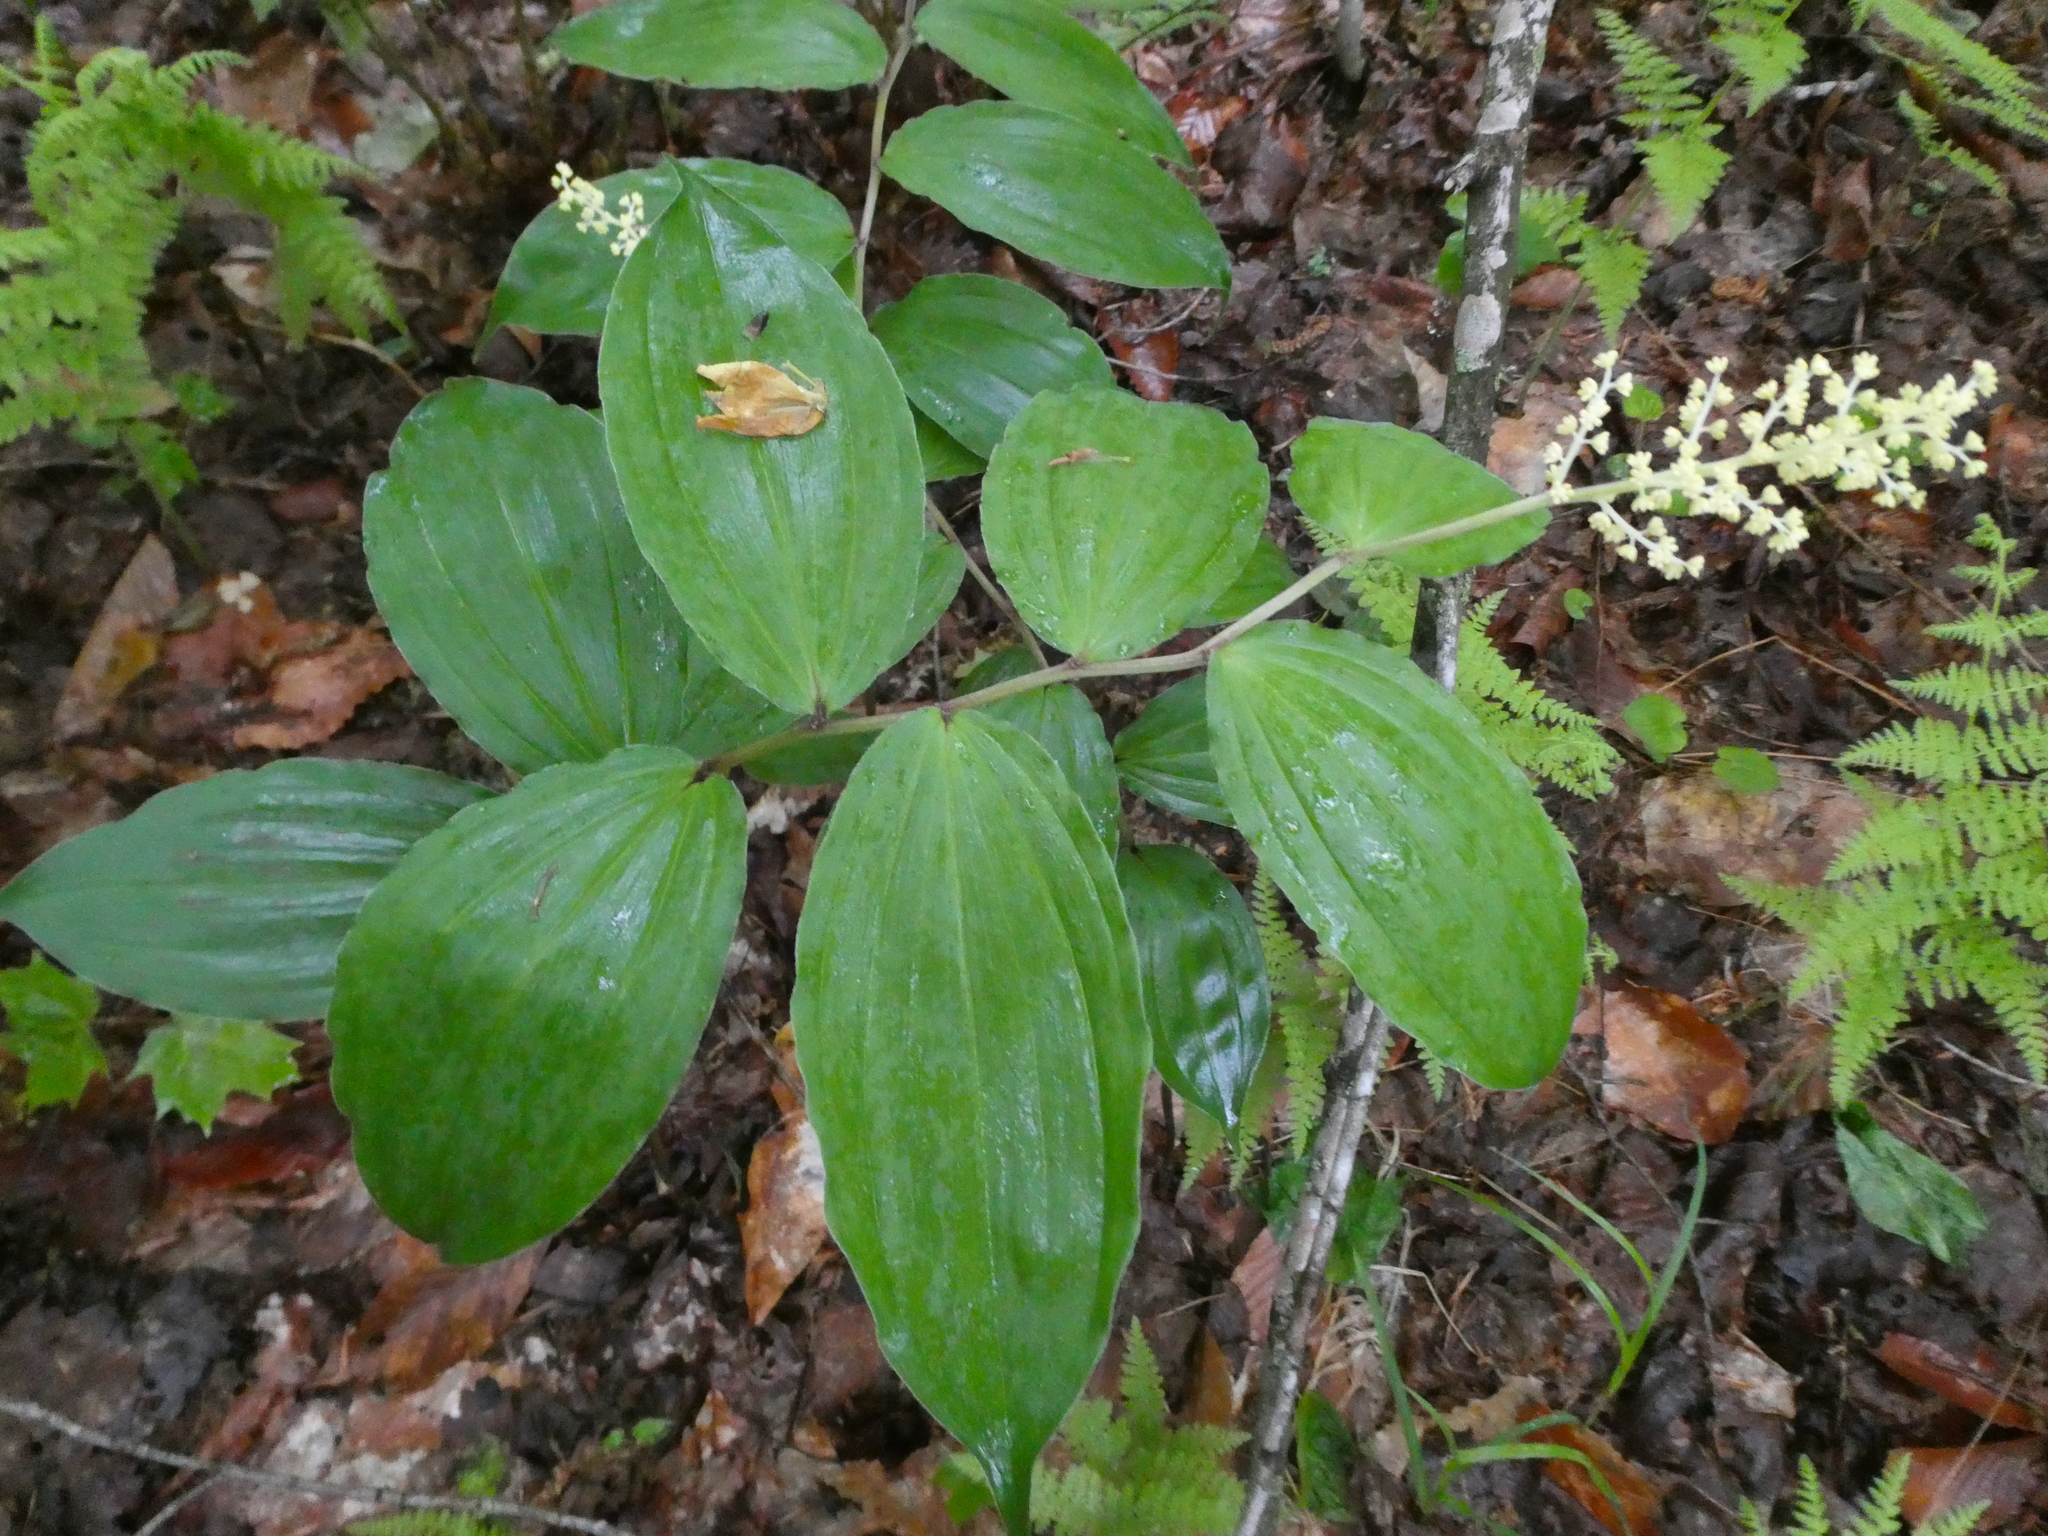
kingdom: Plantae
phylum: Tracheophyta
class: Liliopsida
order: Asparagales
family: Asparagaceae
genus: Maianthemum
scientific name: Maianthemum racemosum
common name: False spikenard
